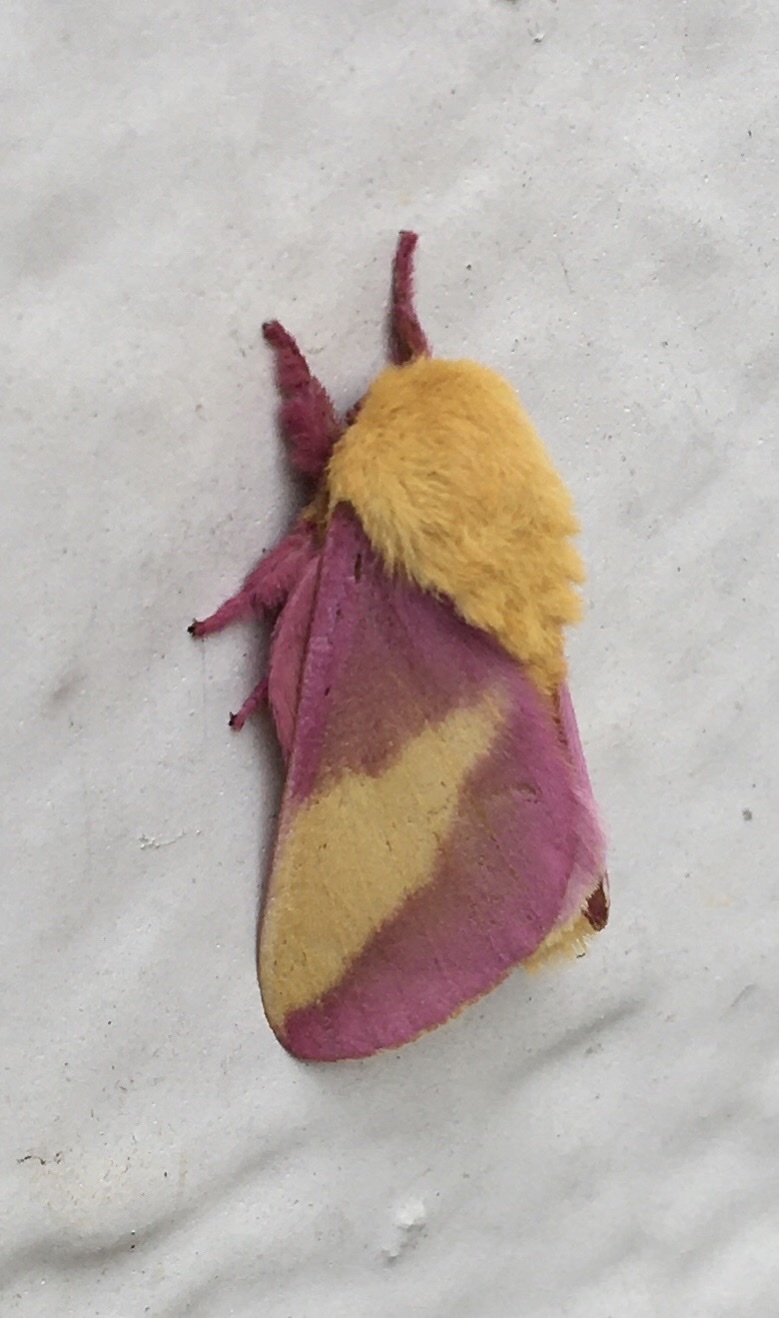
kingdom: Animalia
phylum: Arthropoda
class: Insecta
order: Lepidoptera
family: Saturniidae
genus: Dryocampa
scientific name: Dryocampa rubicunda
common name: Rosy maple moth
